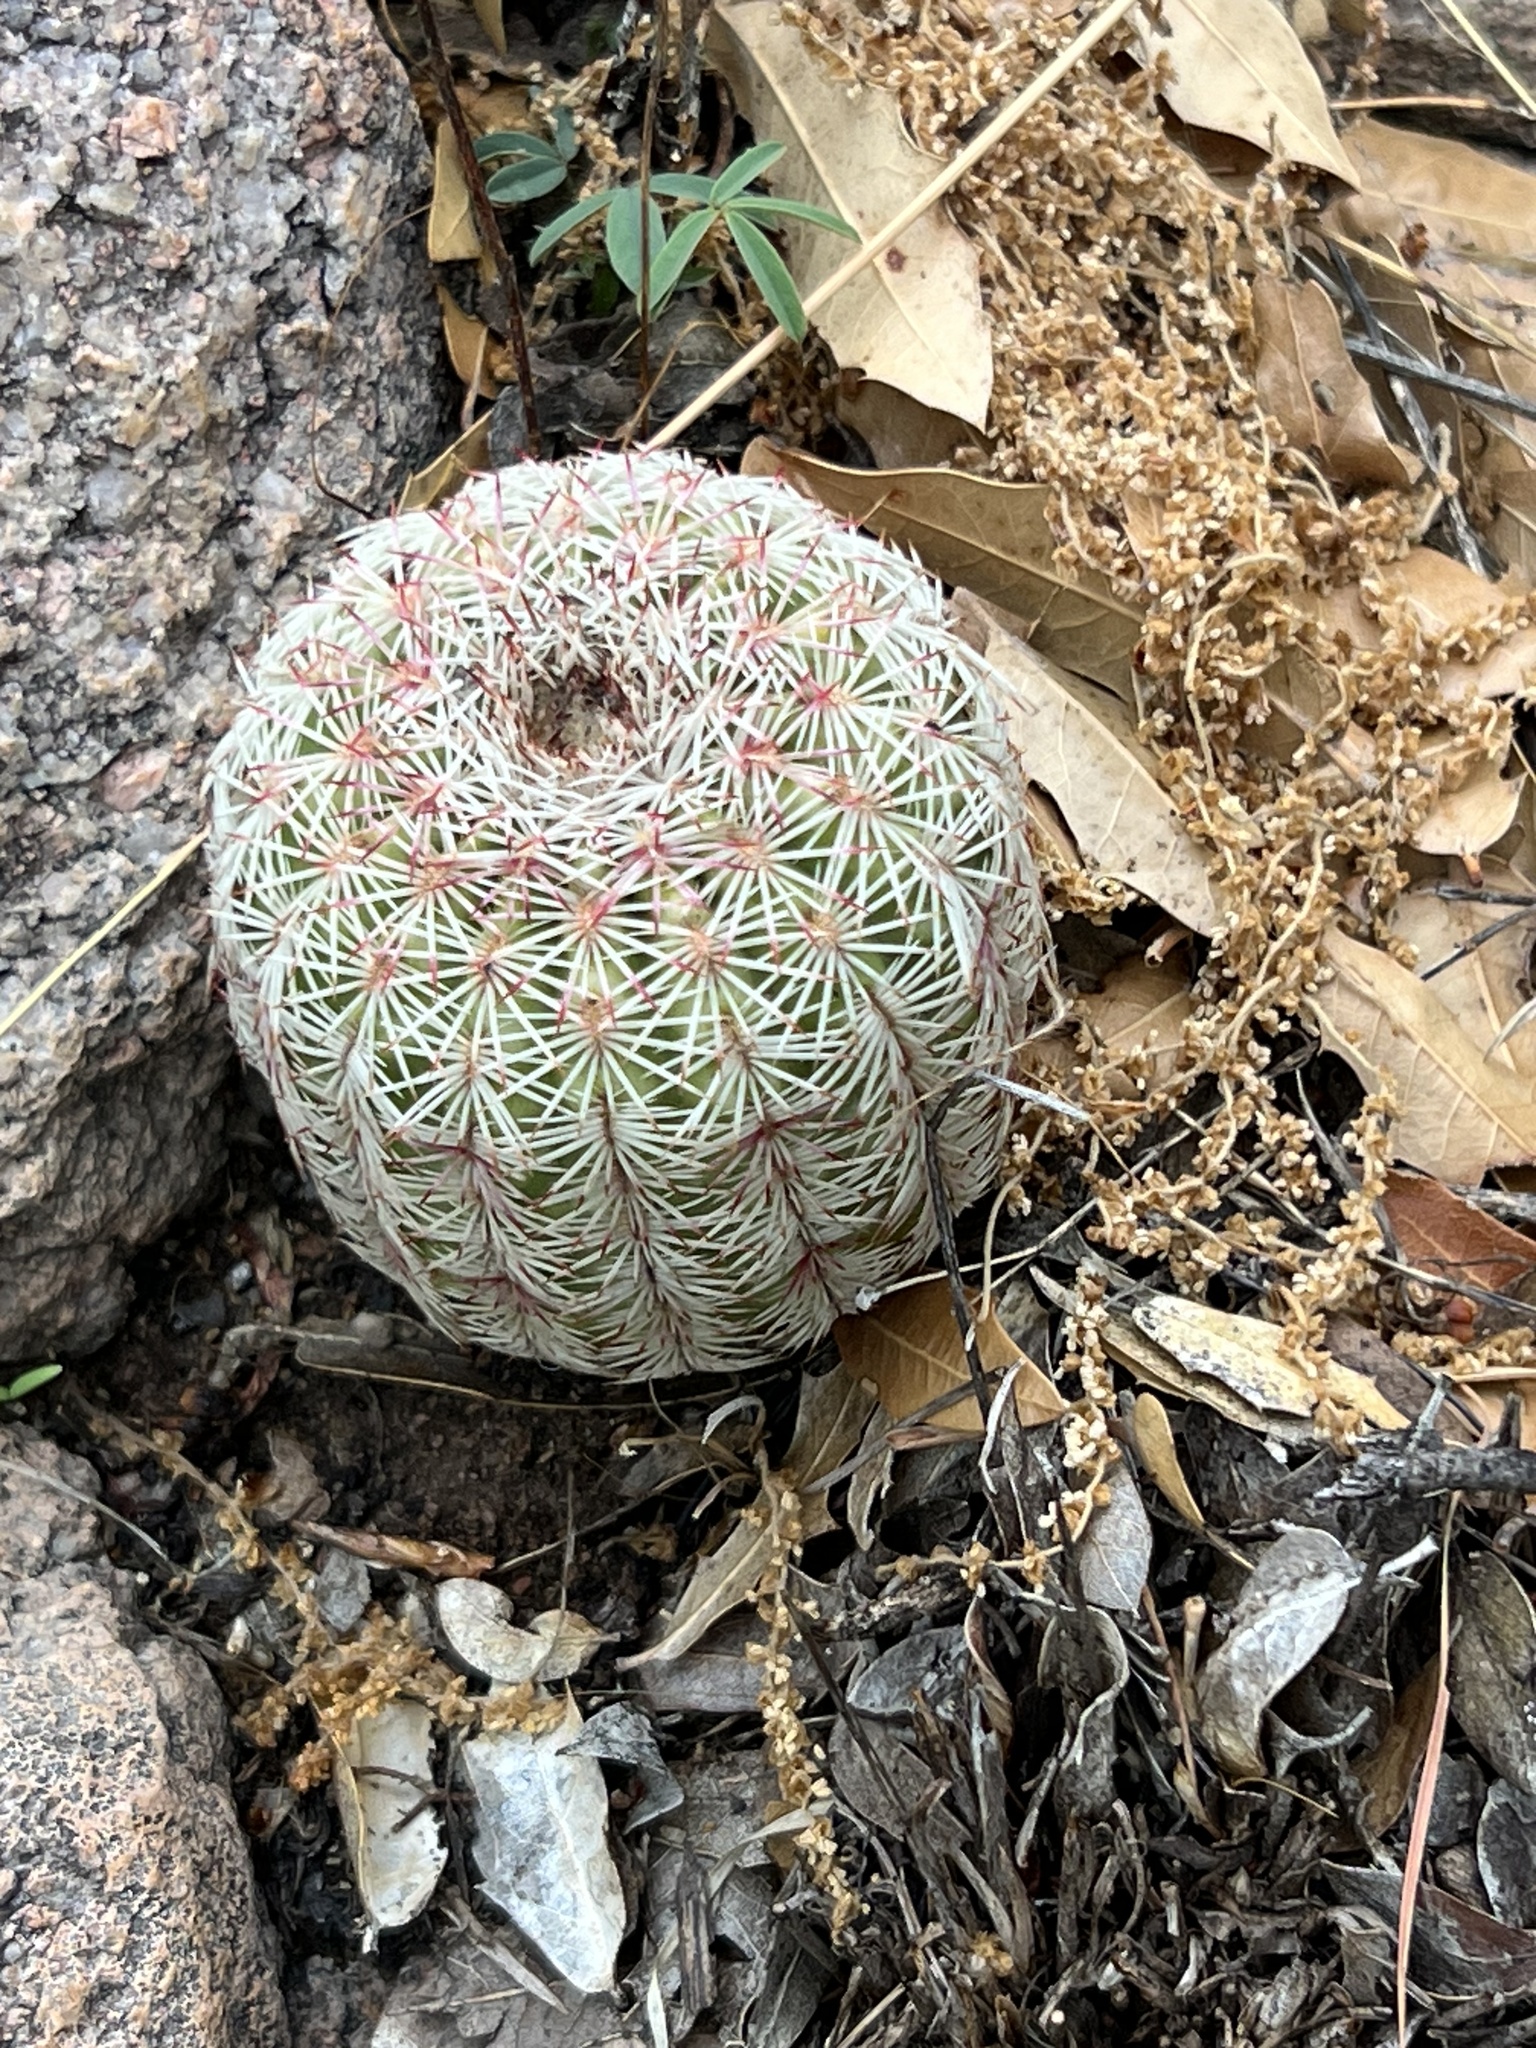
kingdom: Plantae
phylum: Tracheophyta
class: Magnoliopsida
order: Caryophyllales
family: Cactaceae
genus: Echinocereus
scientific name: Echinocereus rigidissimus
